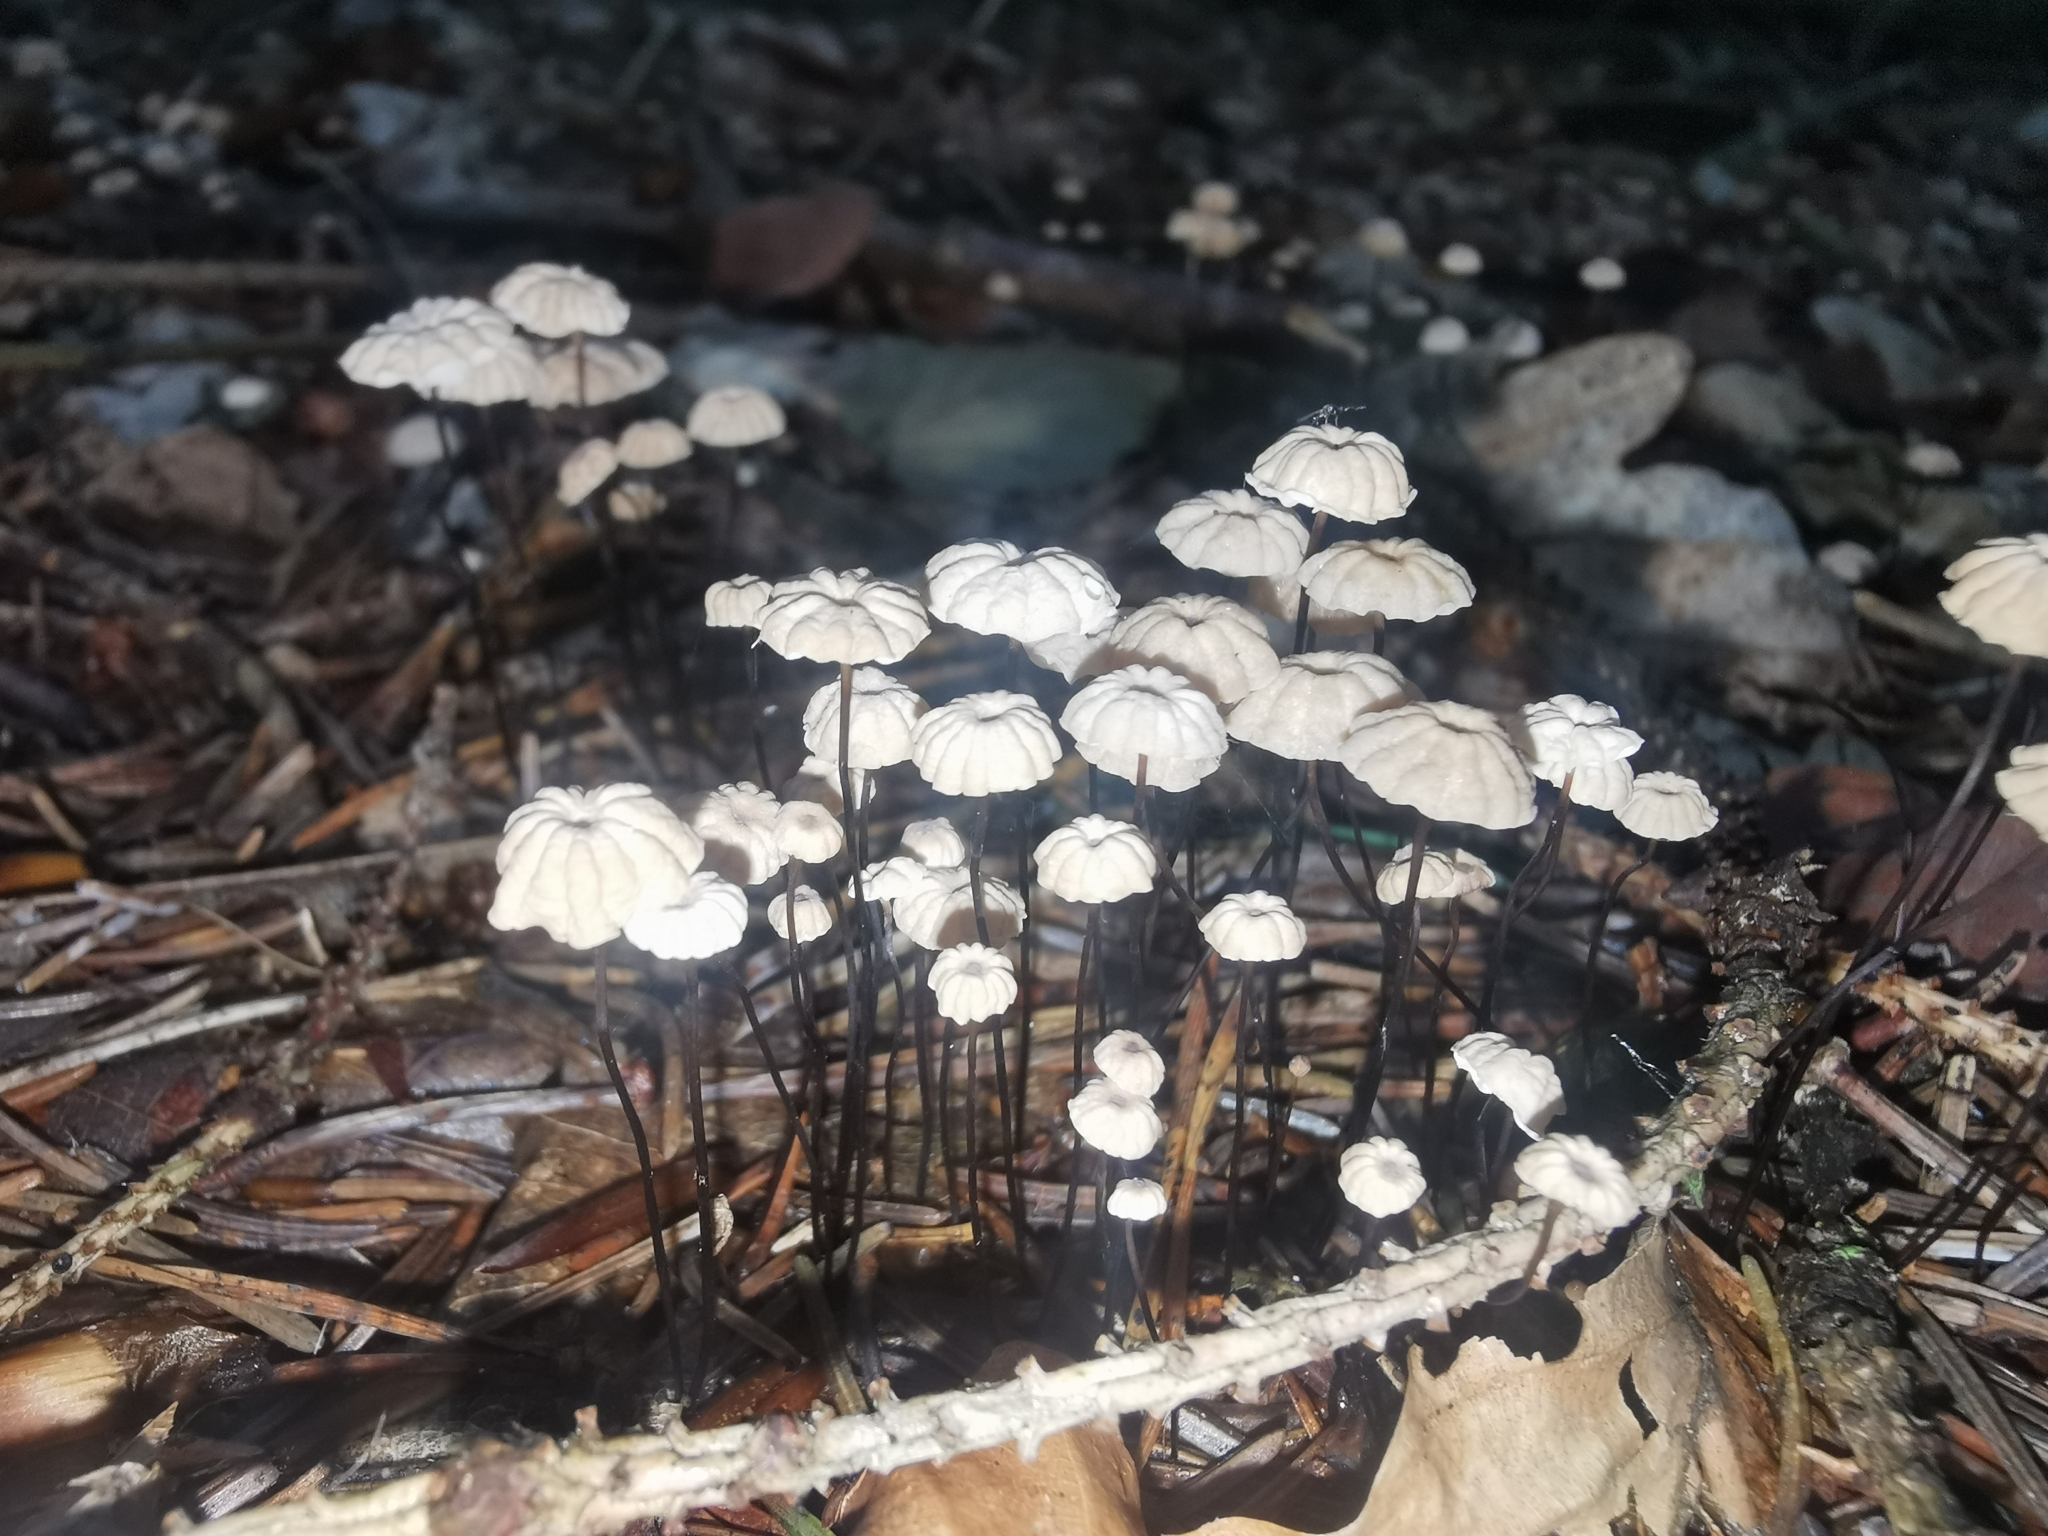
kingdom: Fungi
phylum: Basidiomycota
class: Agaricomycetes
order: Agaricales
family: Marasmiaceae
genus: Marasmius
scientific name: Marasmius rotula
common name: Collared parachute
